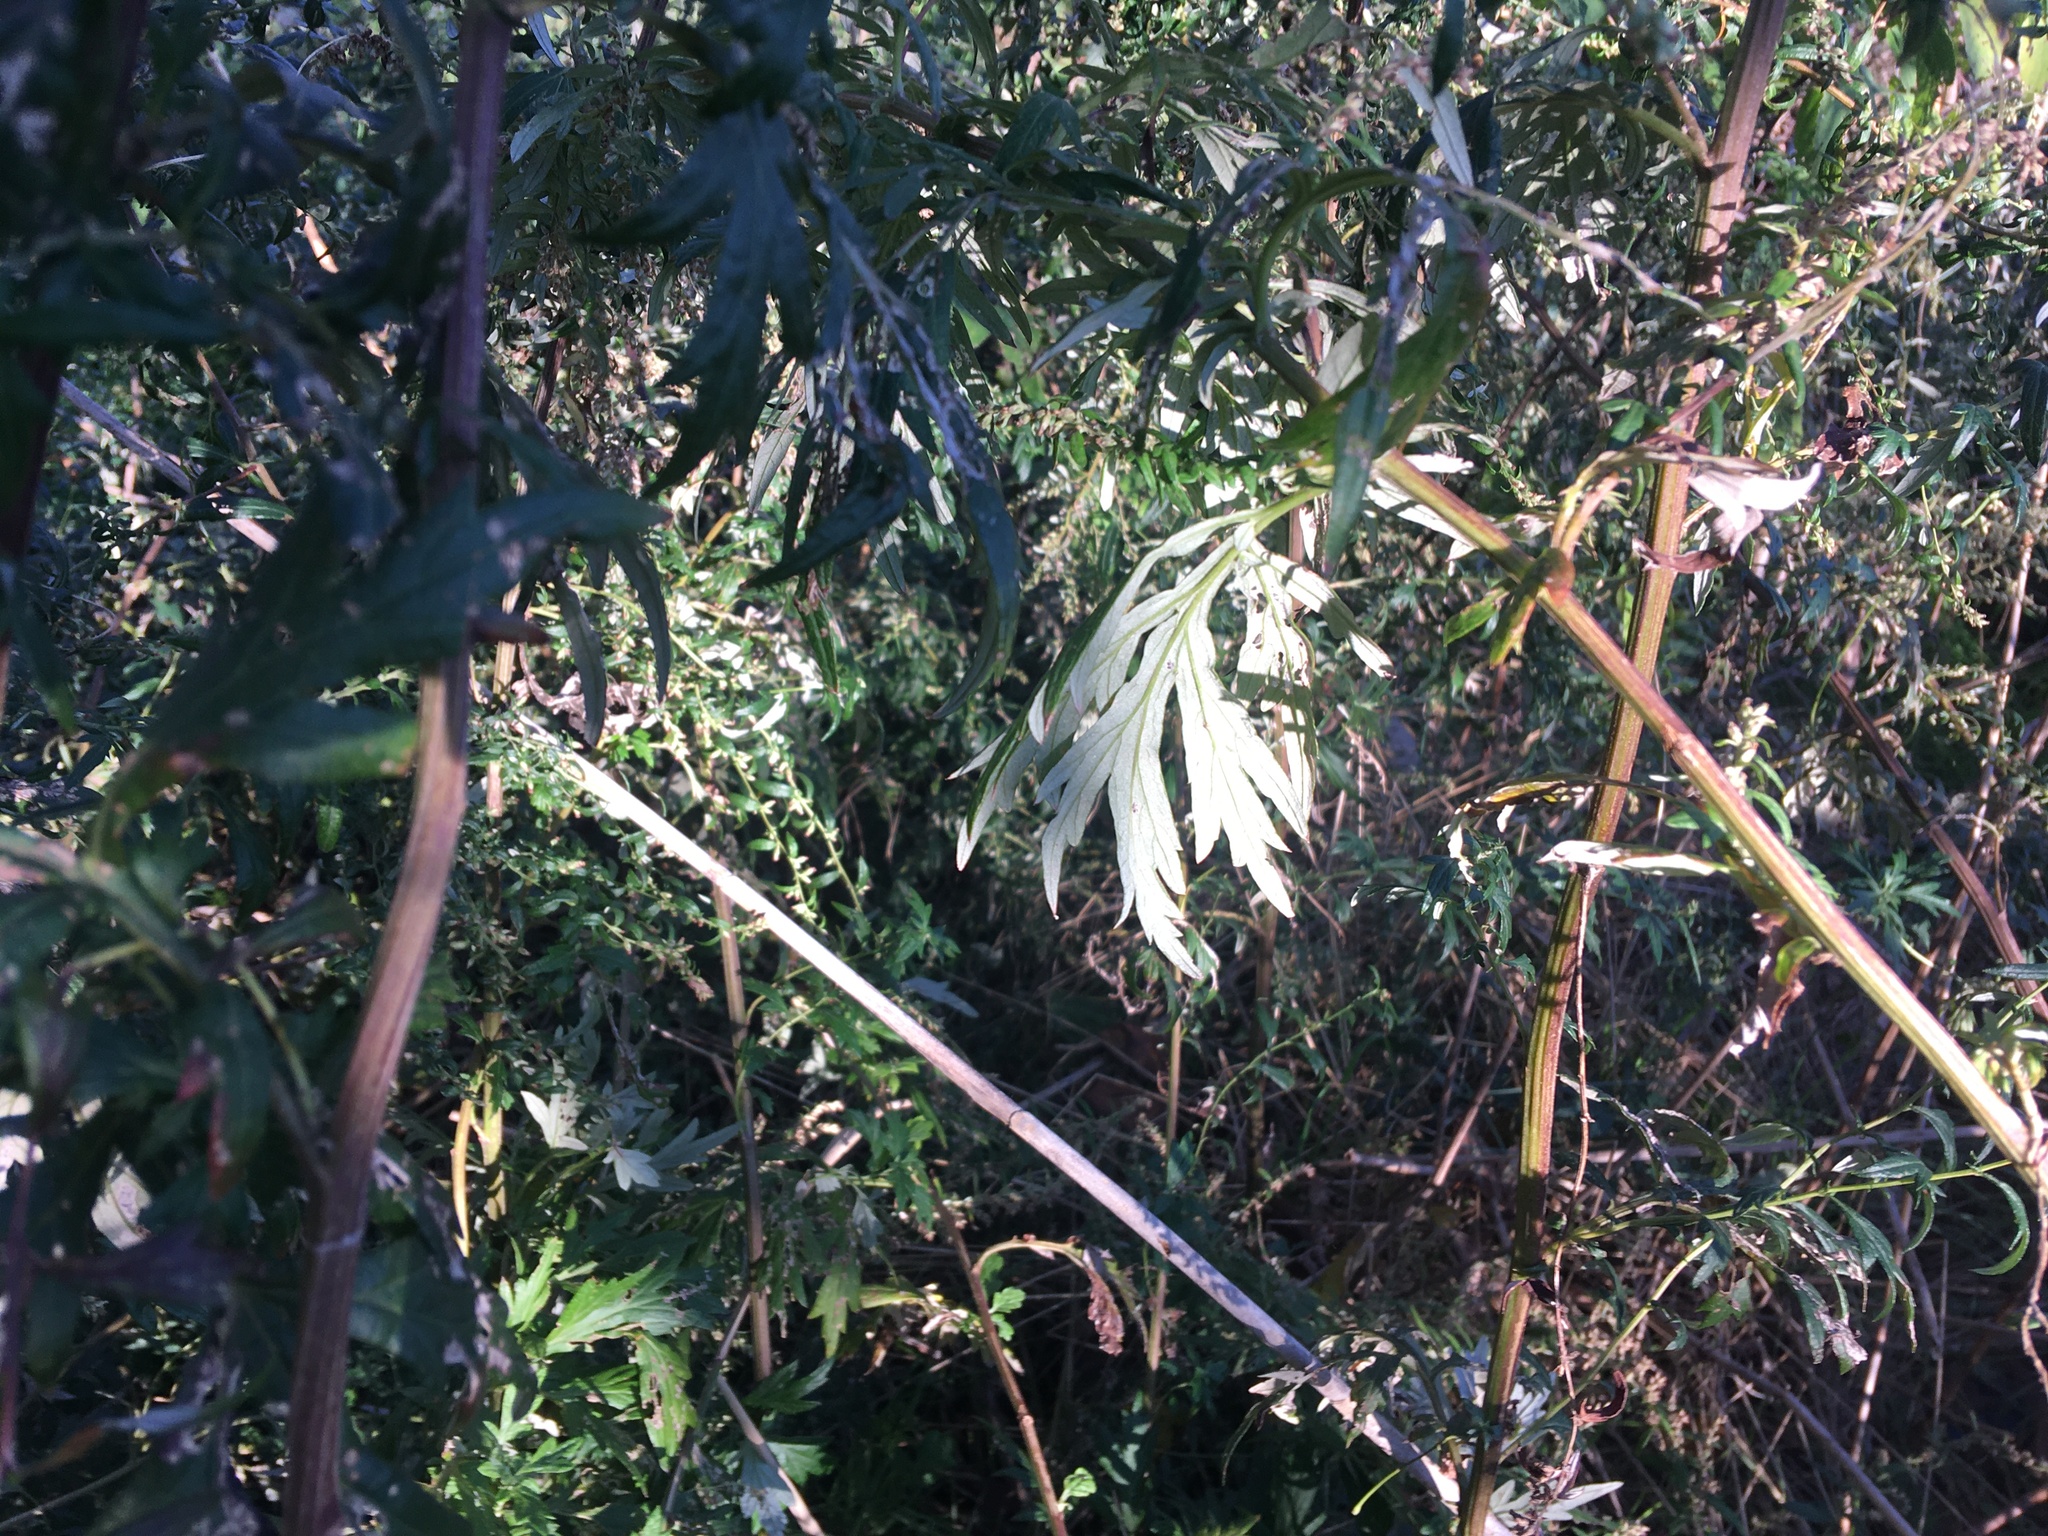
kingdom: Plantae
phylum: Tracheophyta
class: Magnoliopsida
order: Asterales
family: Asteraceae
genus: Artemisia
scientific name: Artemisia vulgaris
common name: Mugwort
